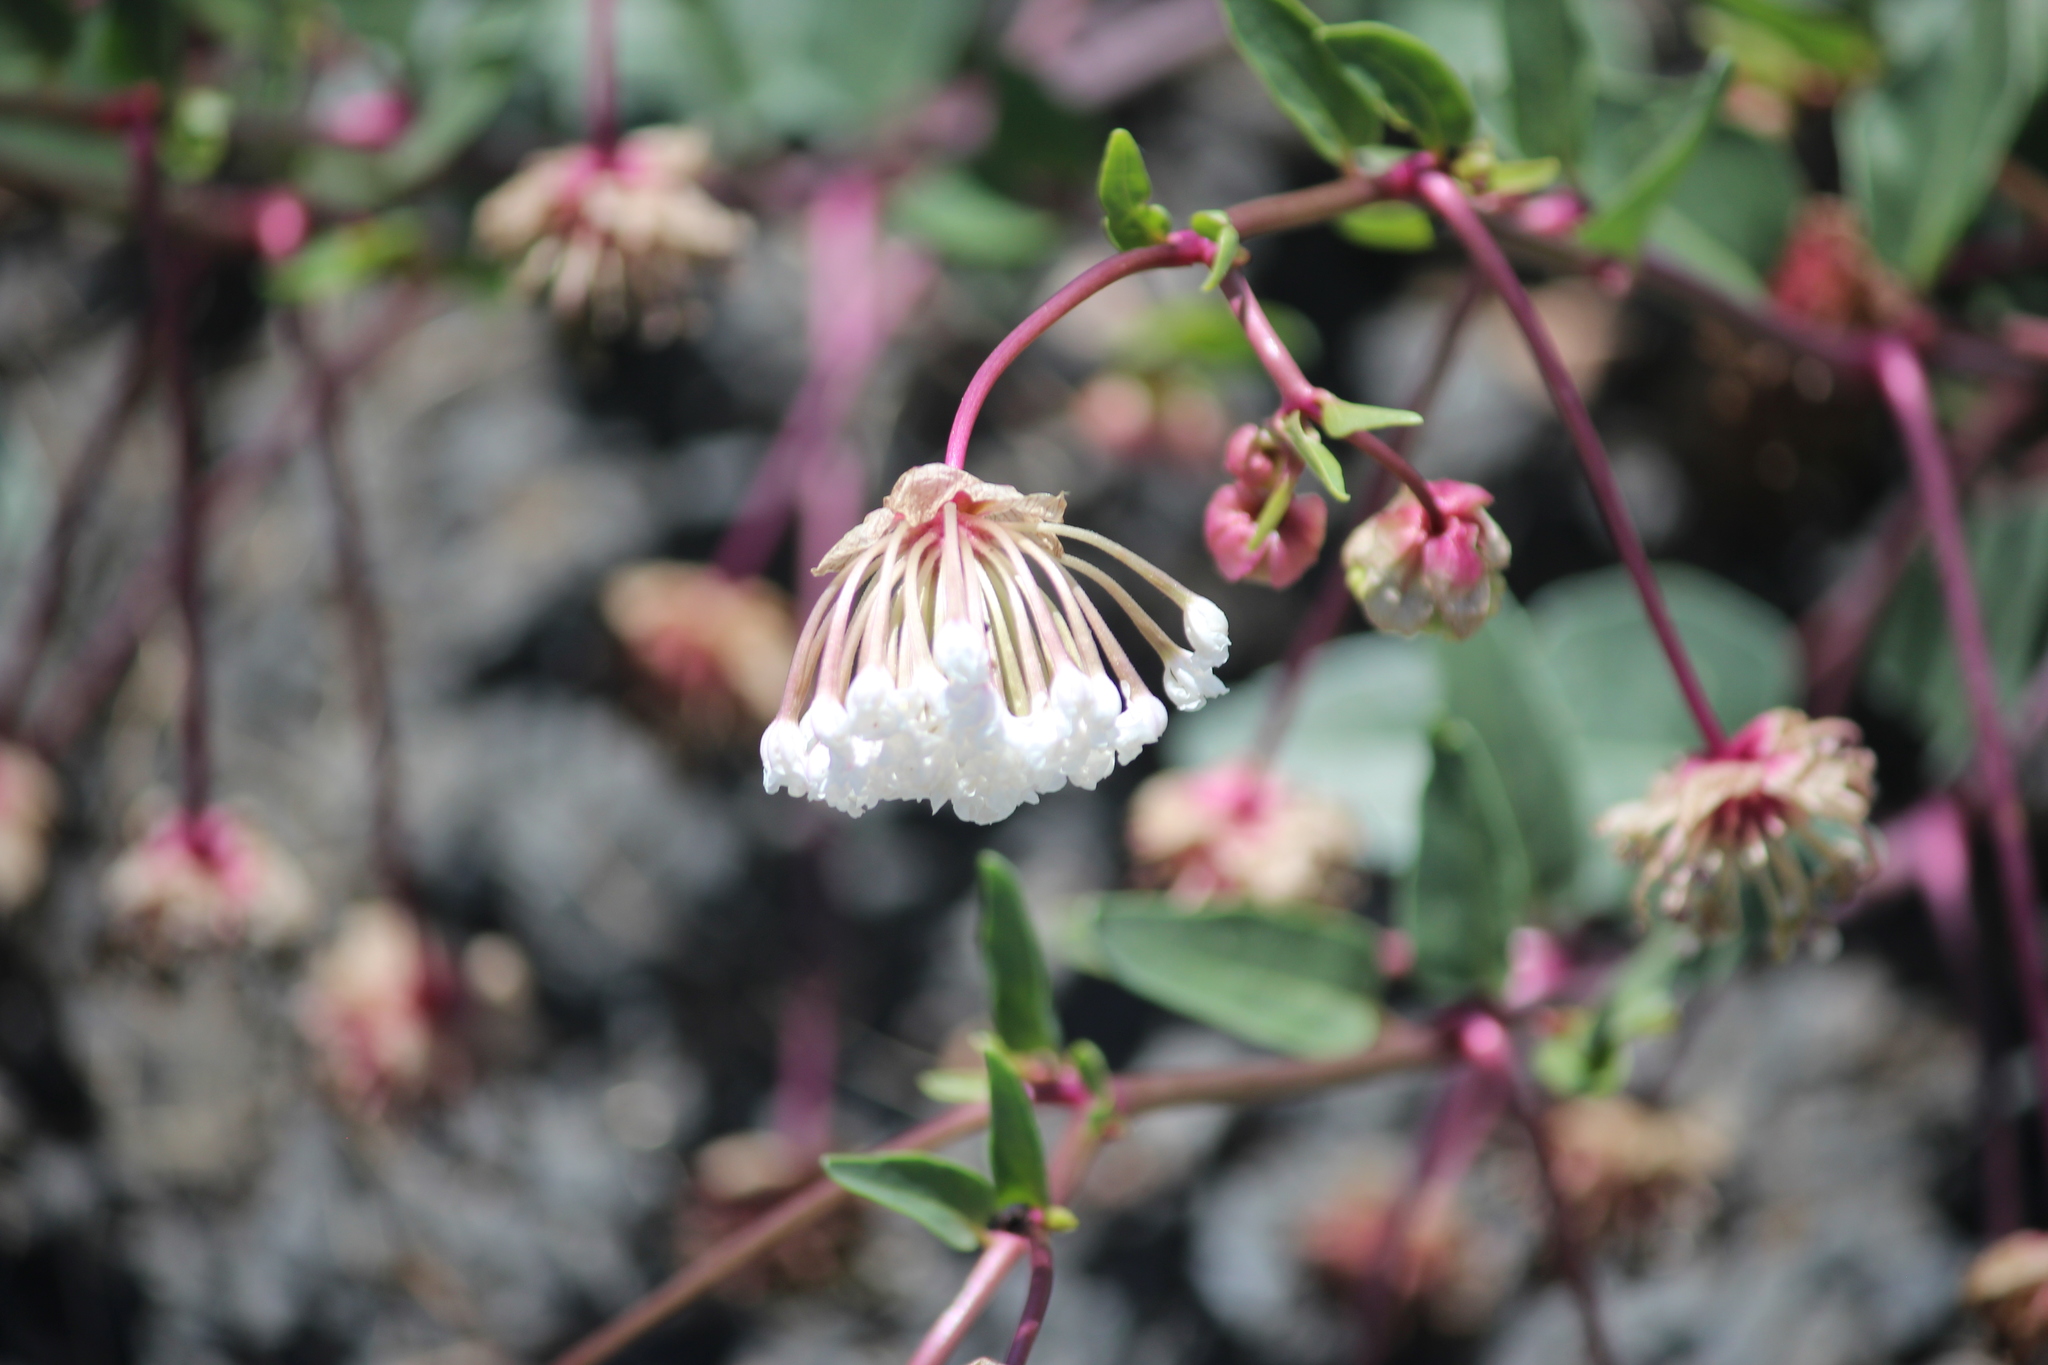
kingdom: Plantae
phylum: Tracheophyta
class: Magnoliopsida
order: Caryophyllales
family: Nyctaginaceae
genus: Abronia
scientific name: Abronia fragrans
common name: Fragrant sand-verbena
